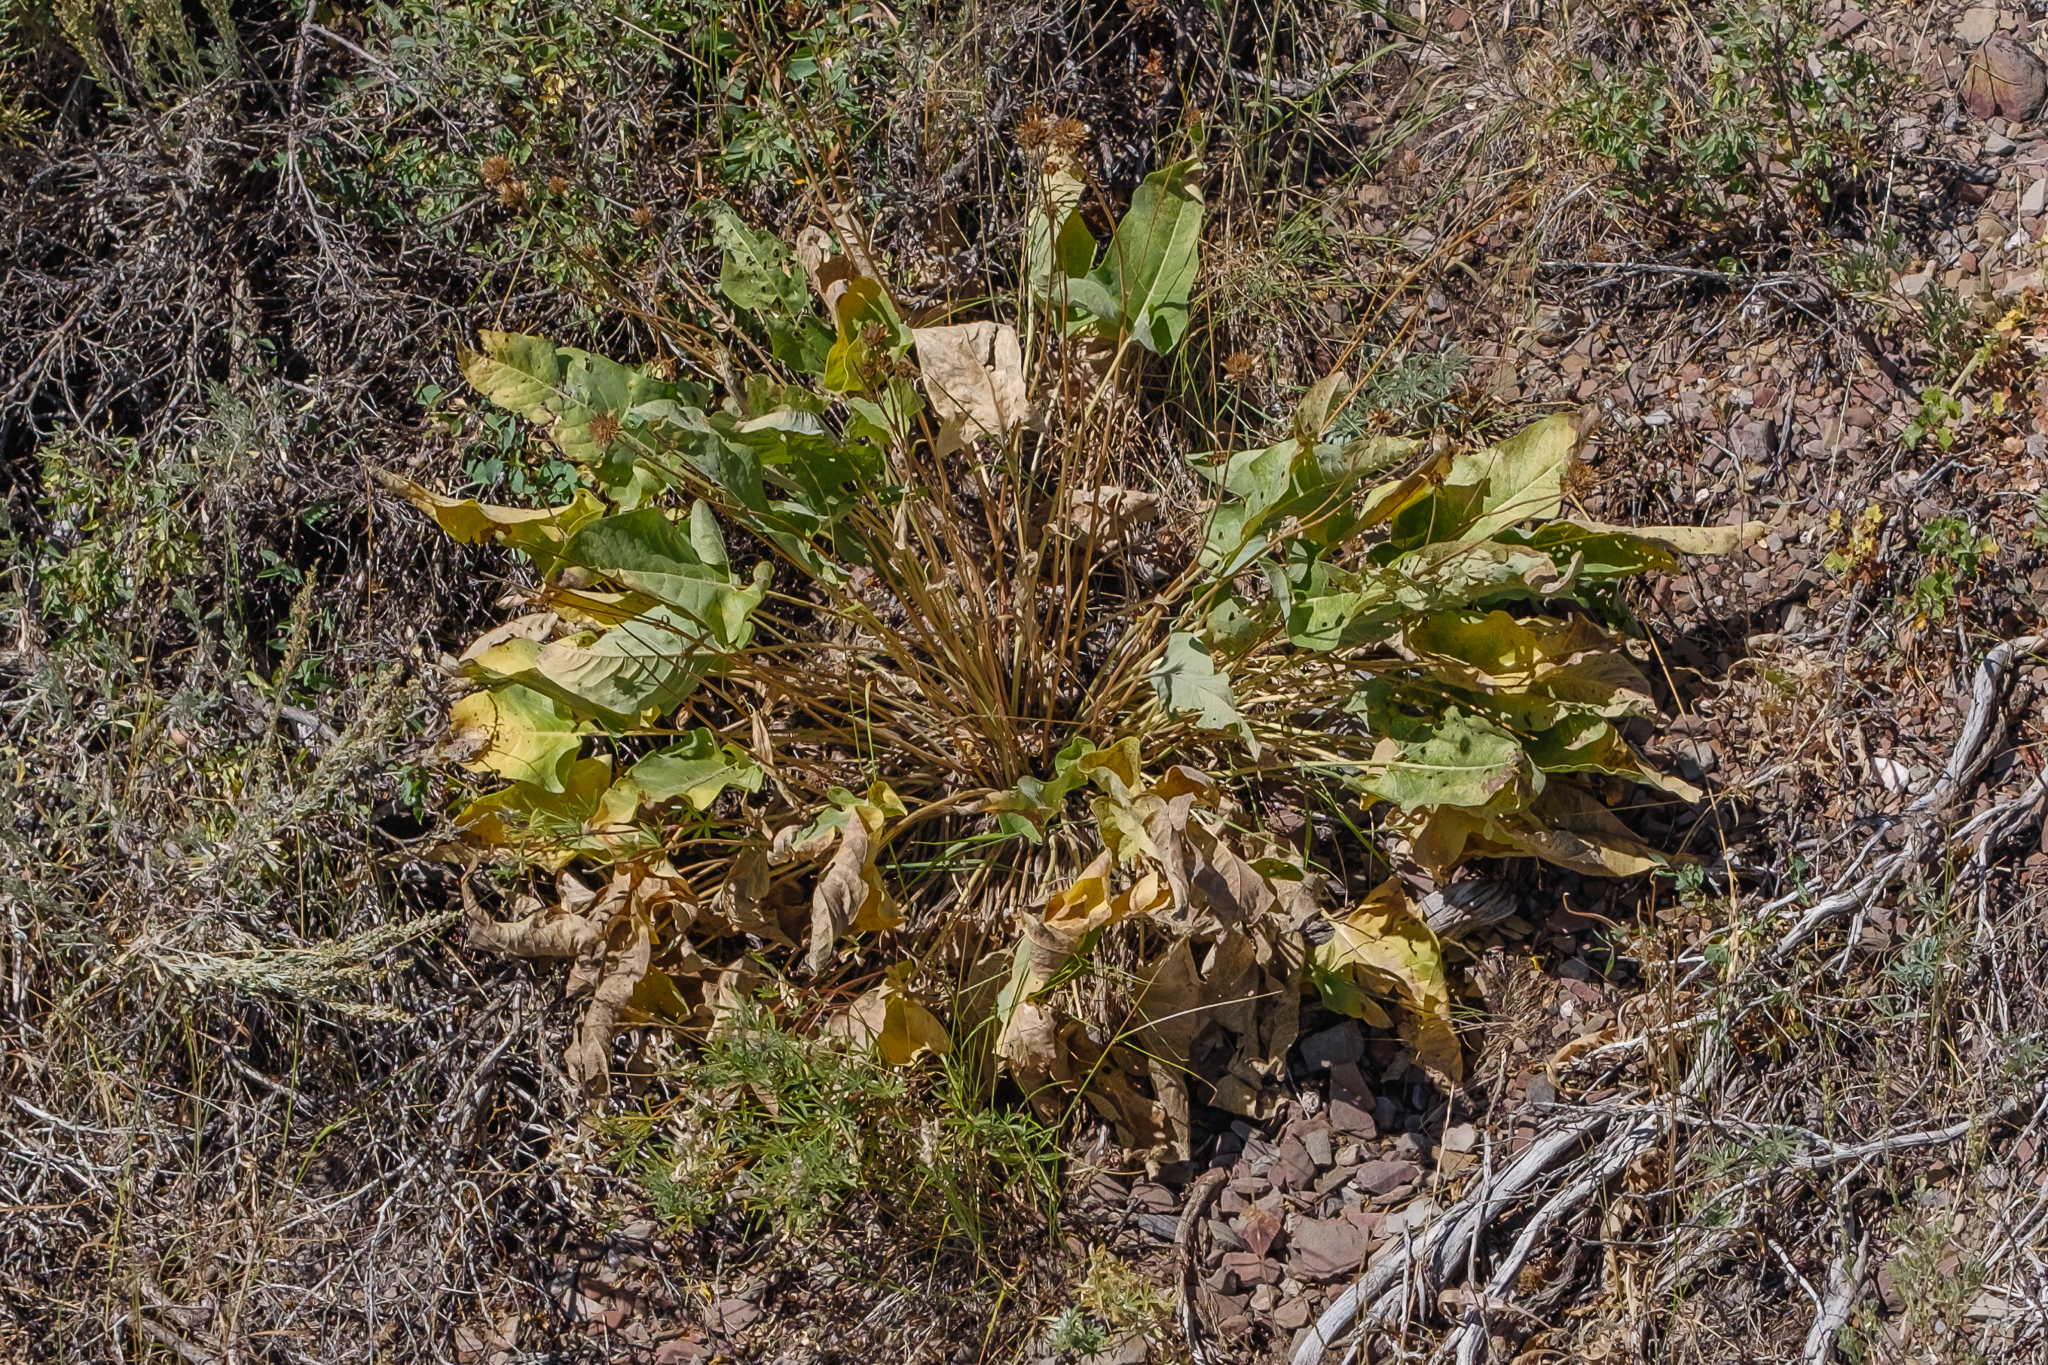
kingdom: Plantae
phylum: Tracheophyta
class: Magnoliopsida
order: Asterales
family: Asteraceae
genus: Wyethia
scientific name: Wyethia sagittata
